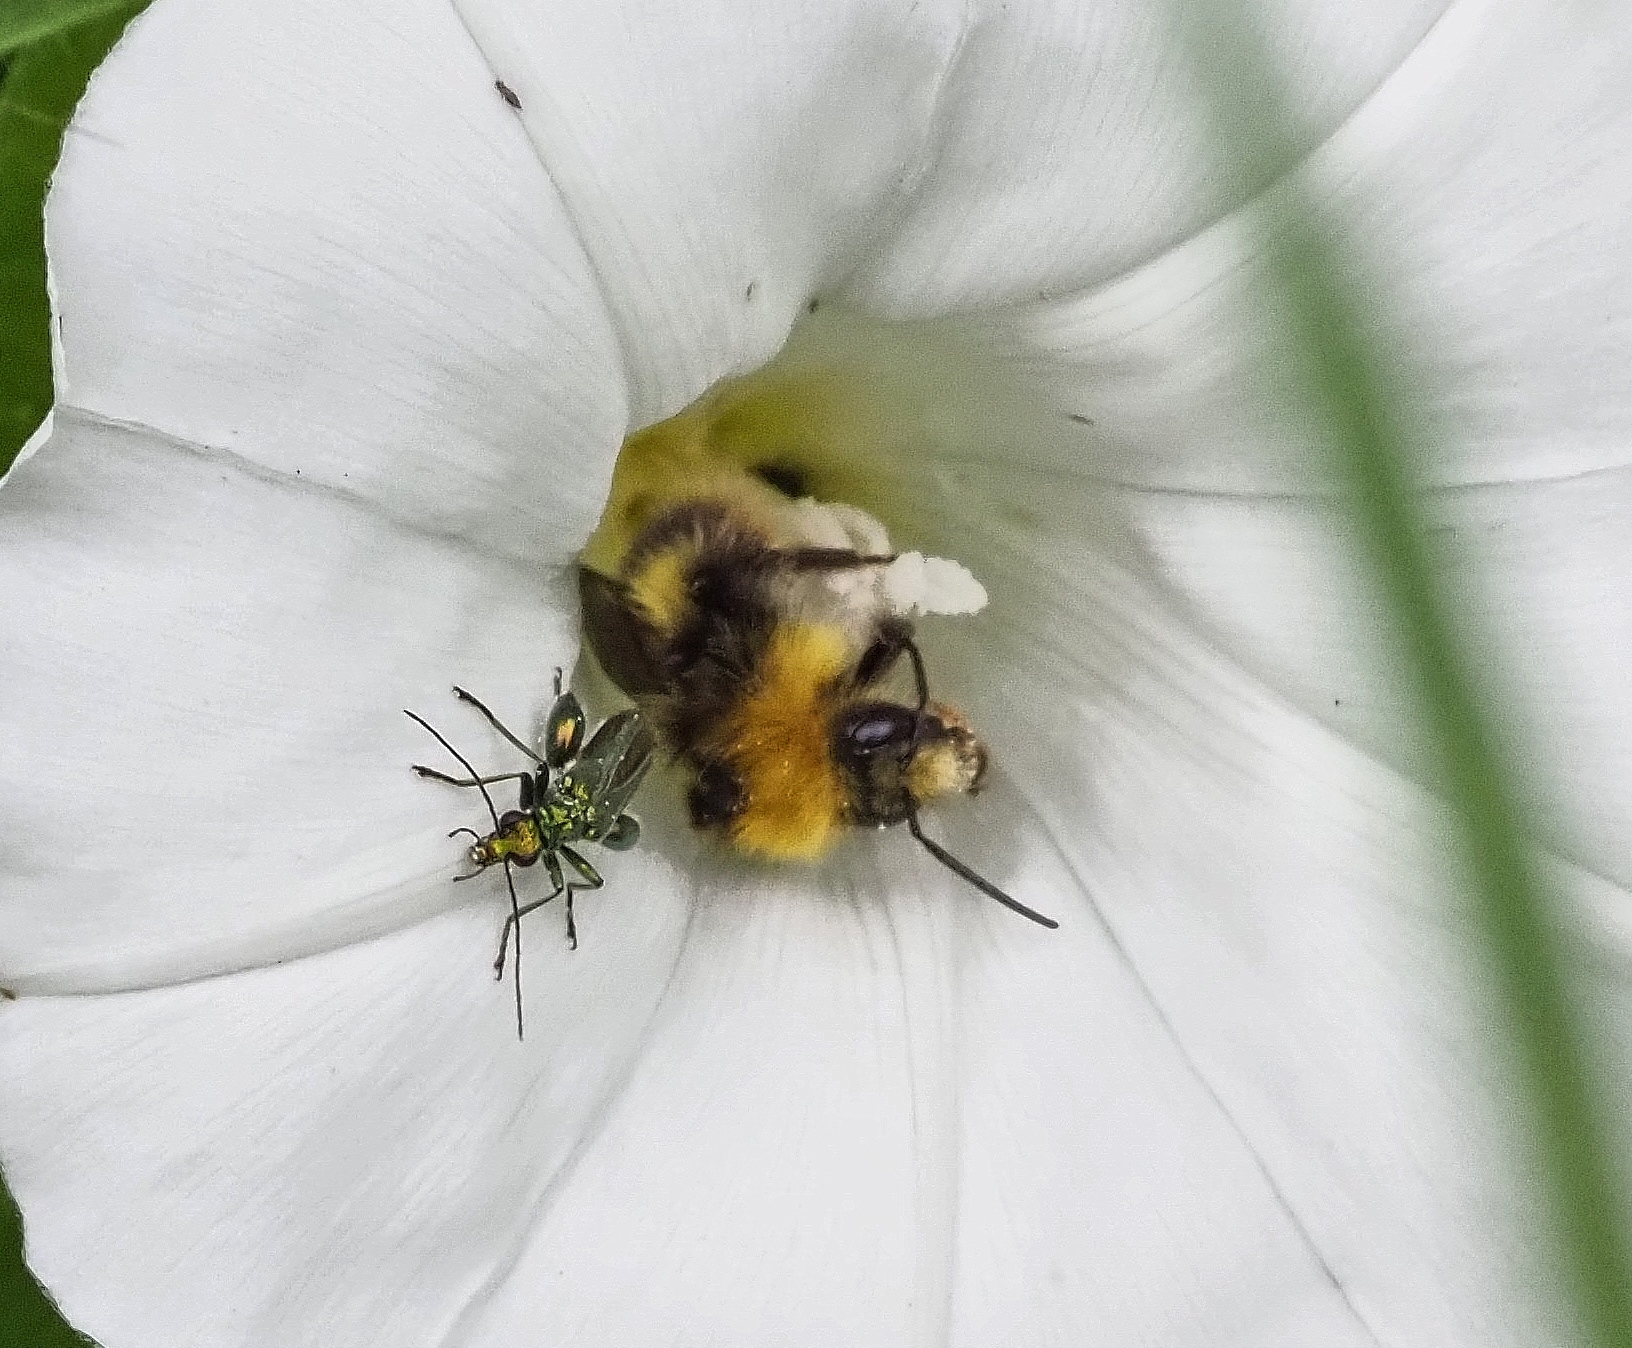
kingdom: Animalia
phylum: Arthropoda
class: Insecta
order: Hymenoptera
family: Apidae
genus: Bombus
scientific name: Bombus pratorum
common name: Early humble-bee
